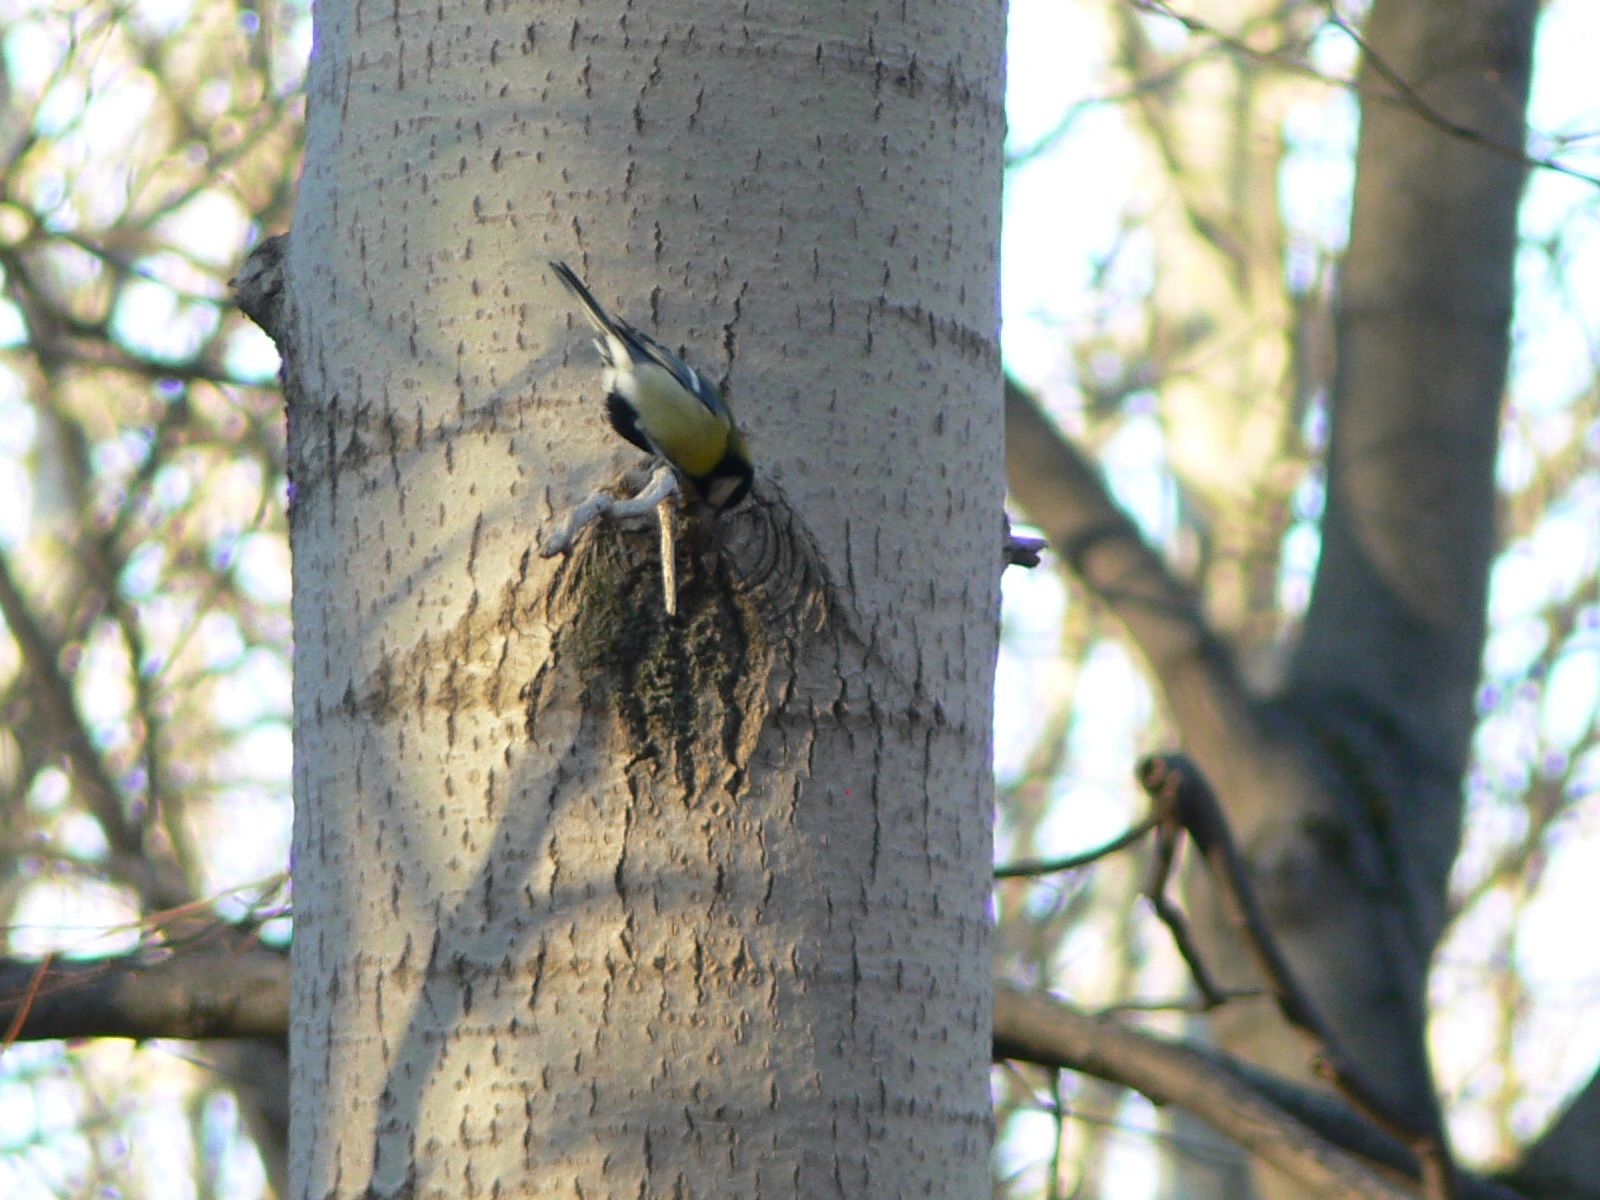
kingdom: Animalia
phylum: Chordata
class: Aves
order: Passeriformes
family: Paridae
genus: Parus
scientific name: Parus major
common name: Great tit
